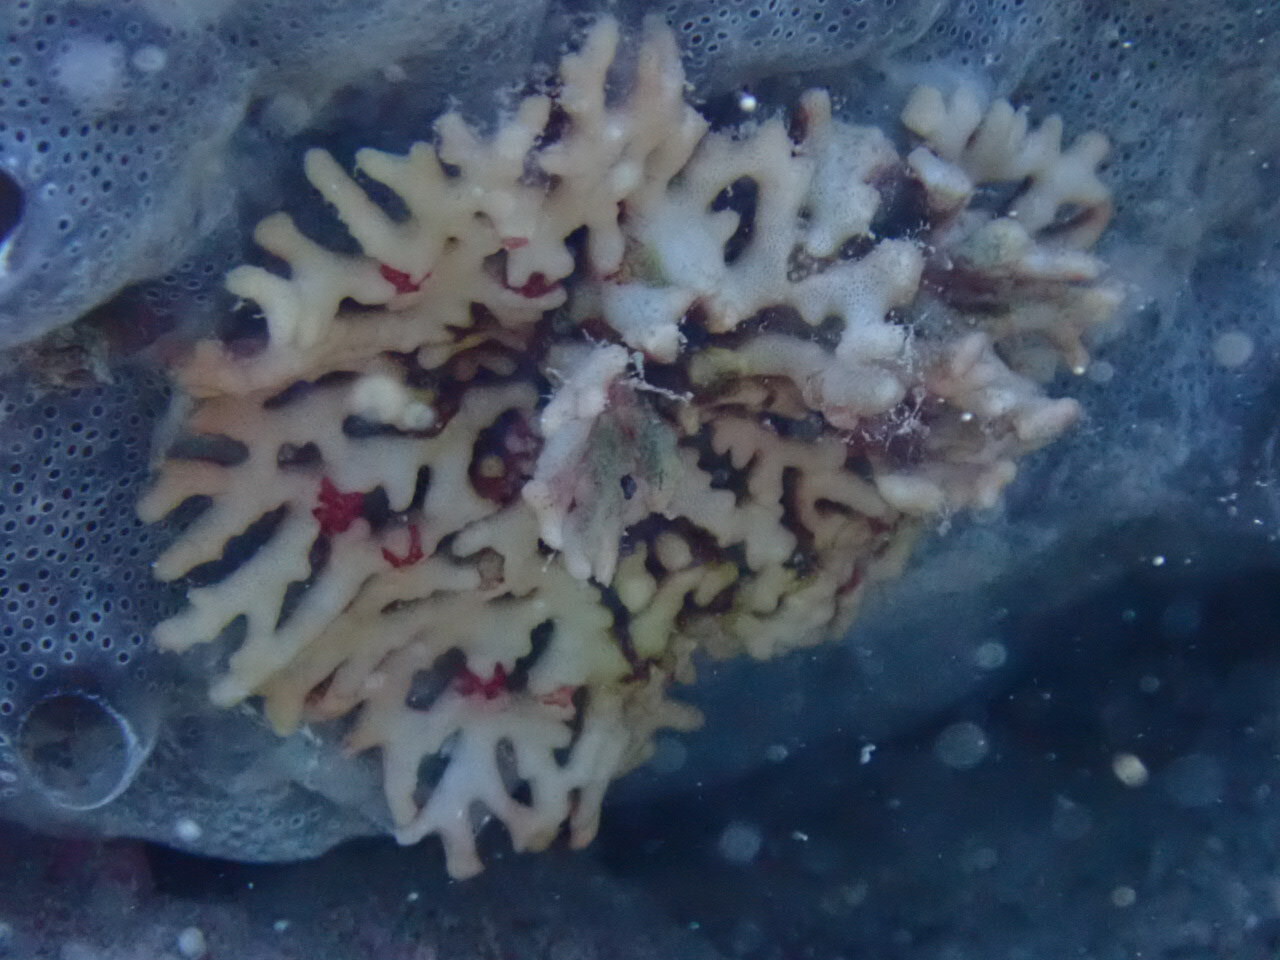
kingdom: Animalia
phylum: Bryozoa
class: Stenolaemata
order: Cyclostomatida
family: Frondiporidae
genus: Frondipora
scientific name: Frondipora verrucosa
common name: Warty leaf-bryozoan
